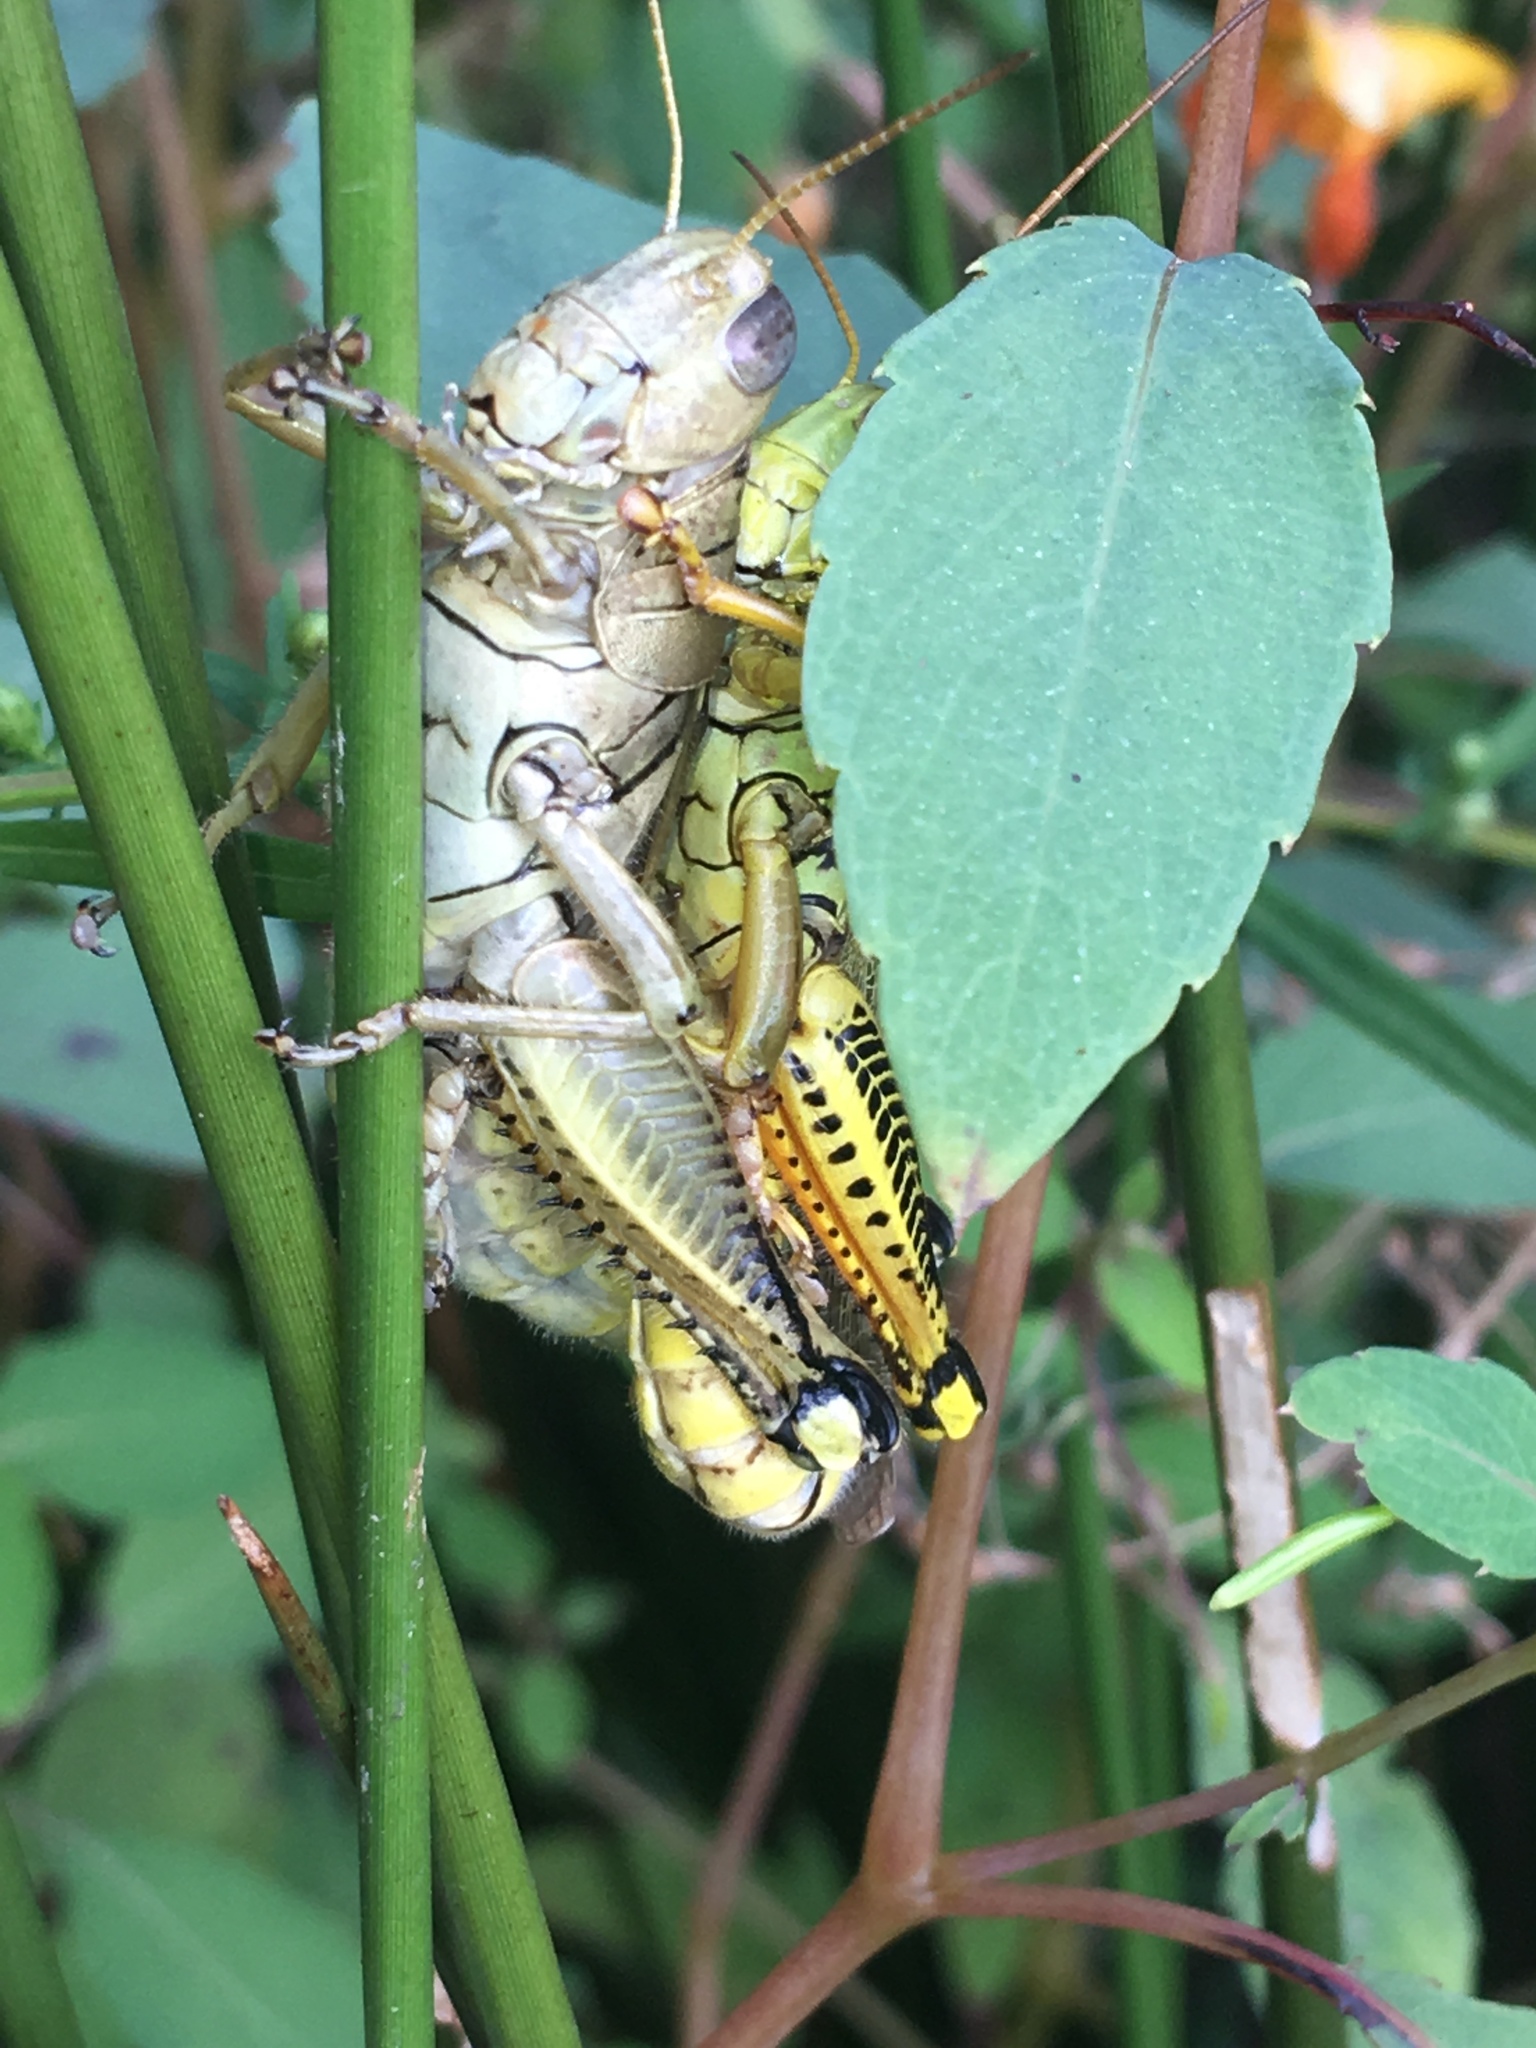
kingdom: Animalia
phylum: Arthropoda
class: Insecta
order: Orthoptera
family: Acrididae
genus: Melanoplus
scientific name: Melanoplus differentialis
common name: Differential grasshopper
